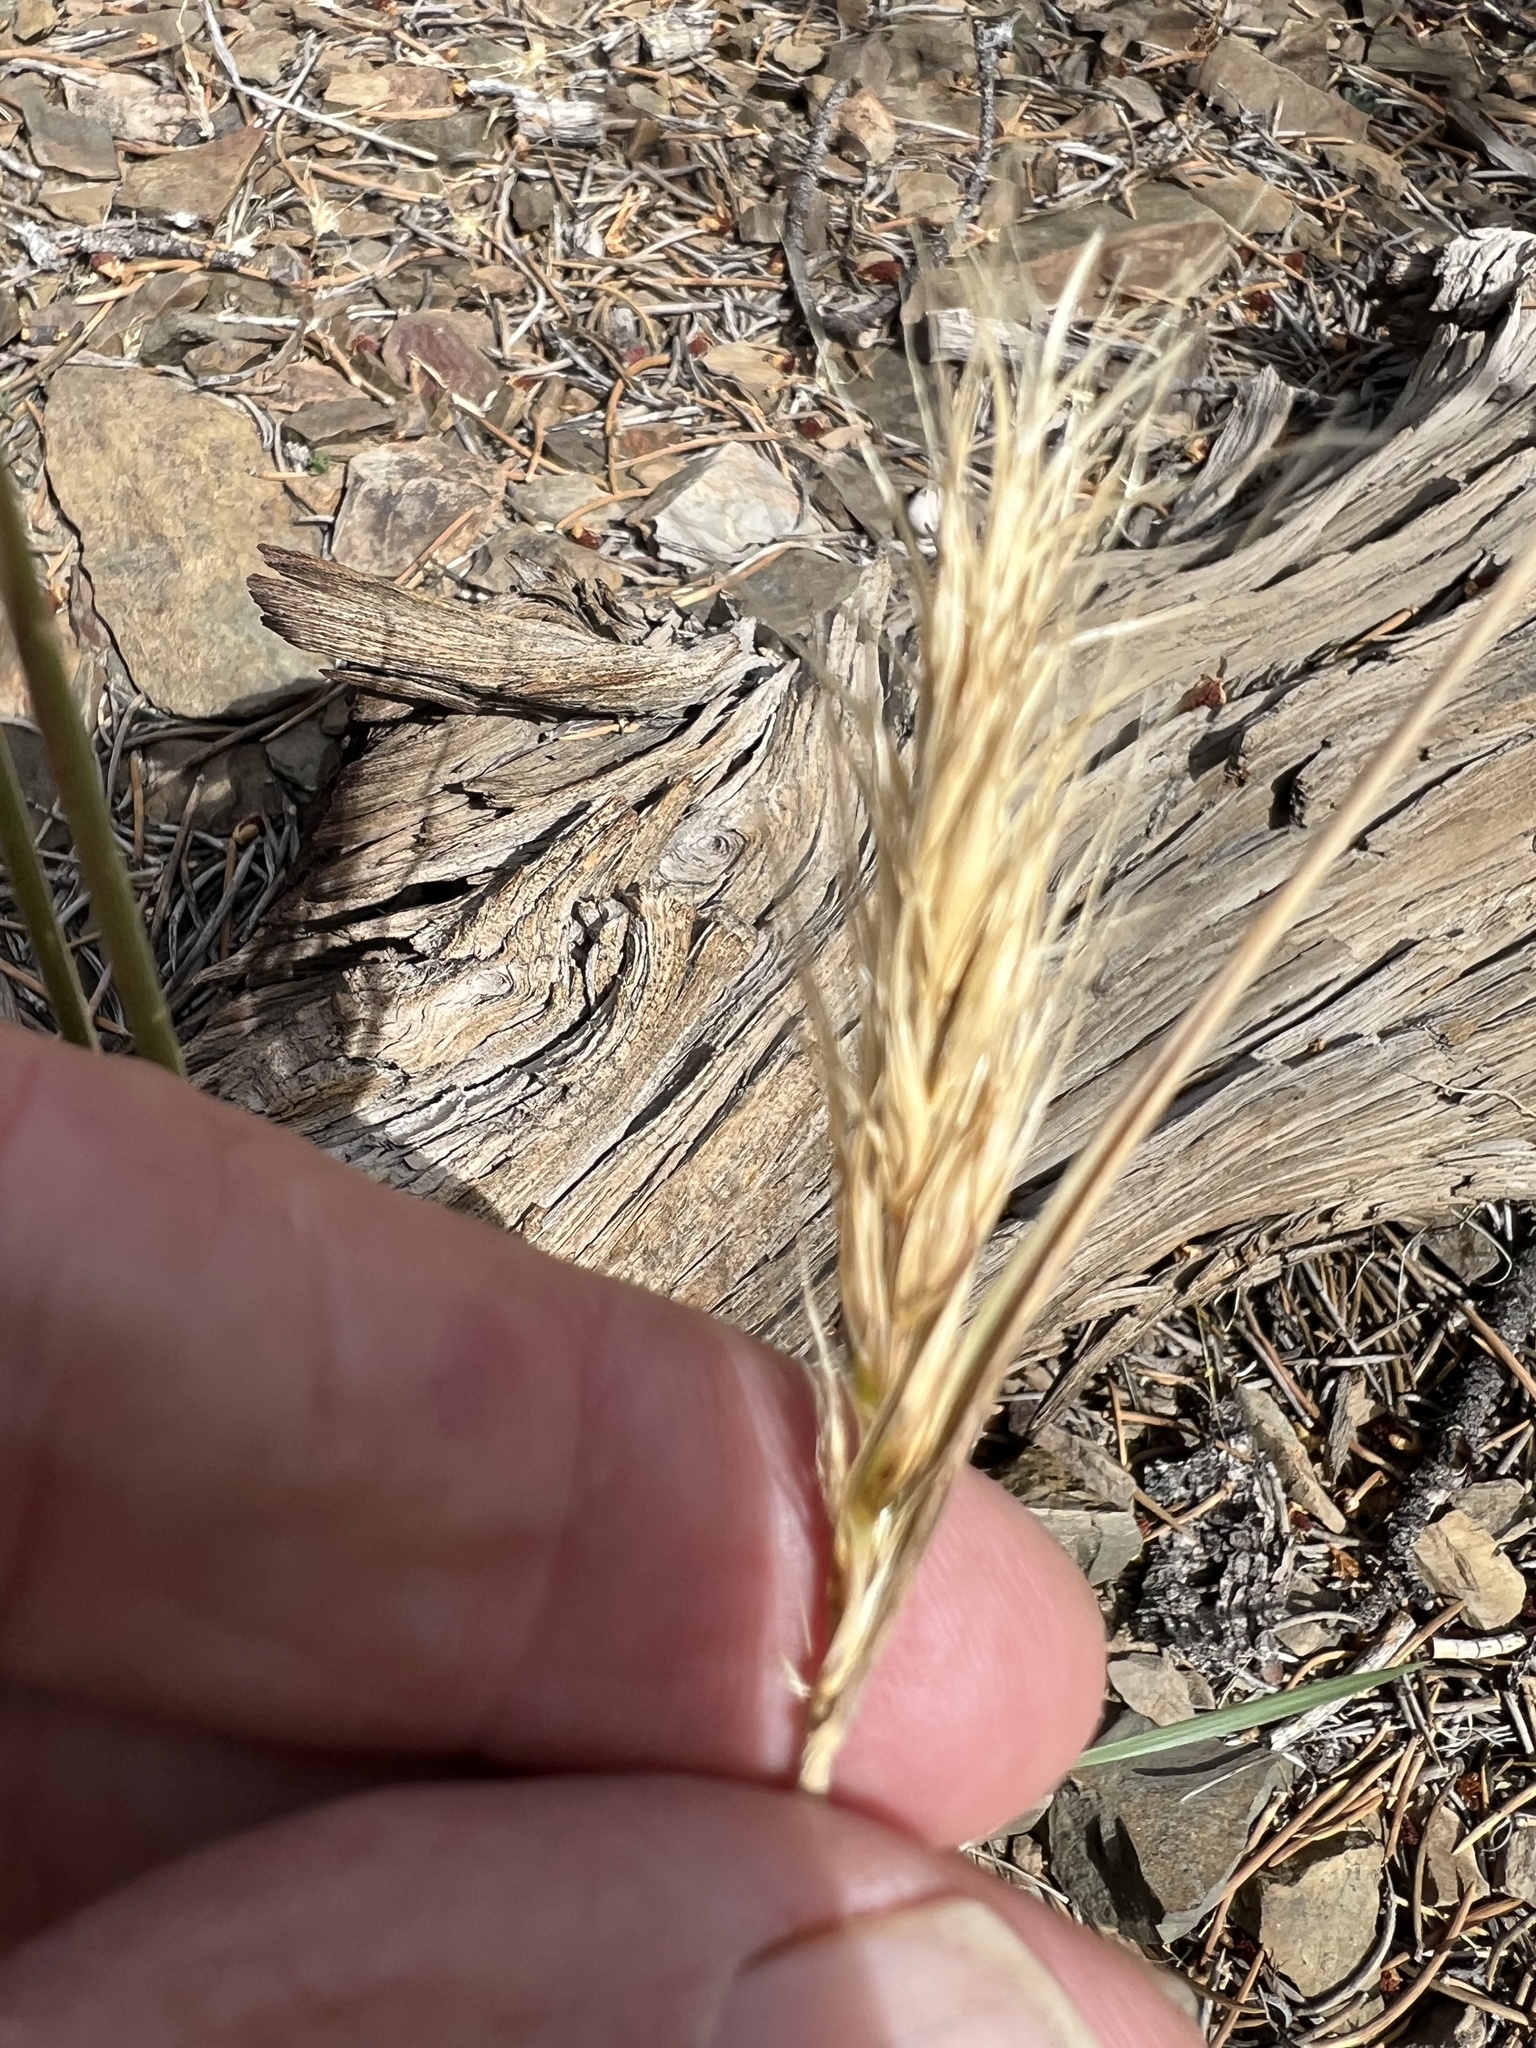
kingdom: Plantae
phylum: Tracheophyta
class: Liliopsida
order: Poales
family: Poaceae
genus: Elymus
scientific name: Elymus elymoides
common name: Bottlebrush squirreltail
